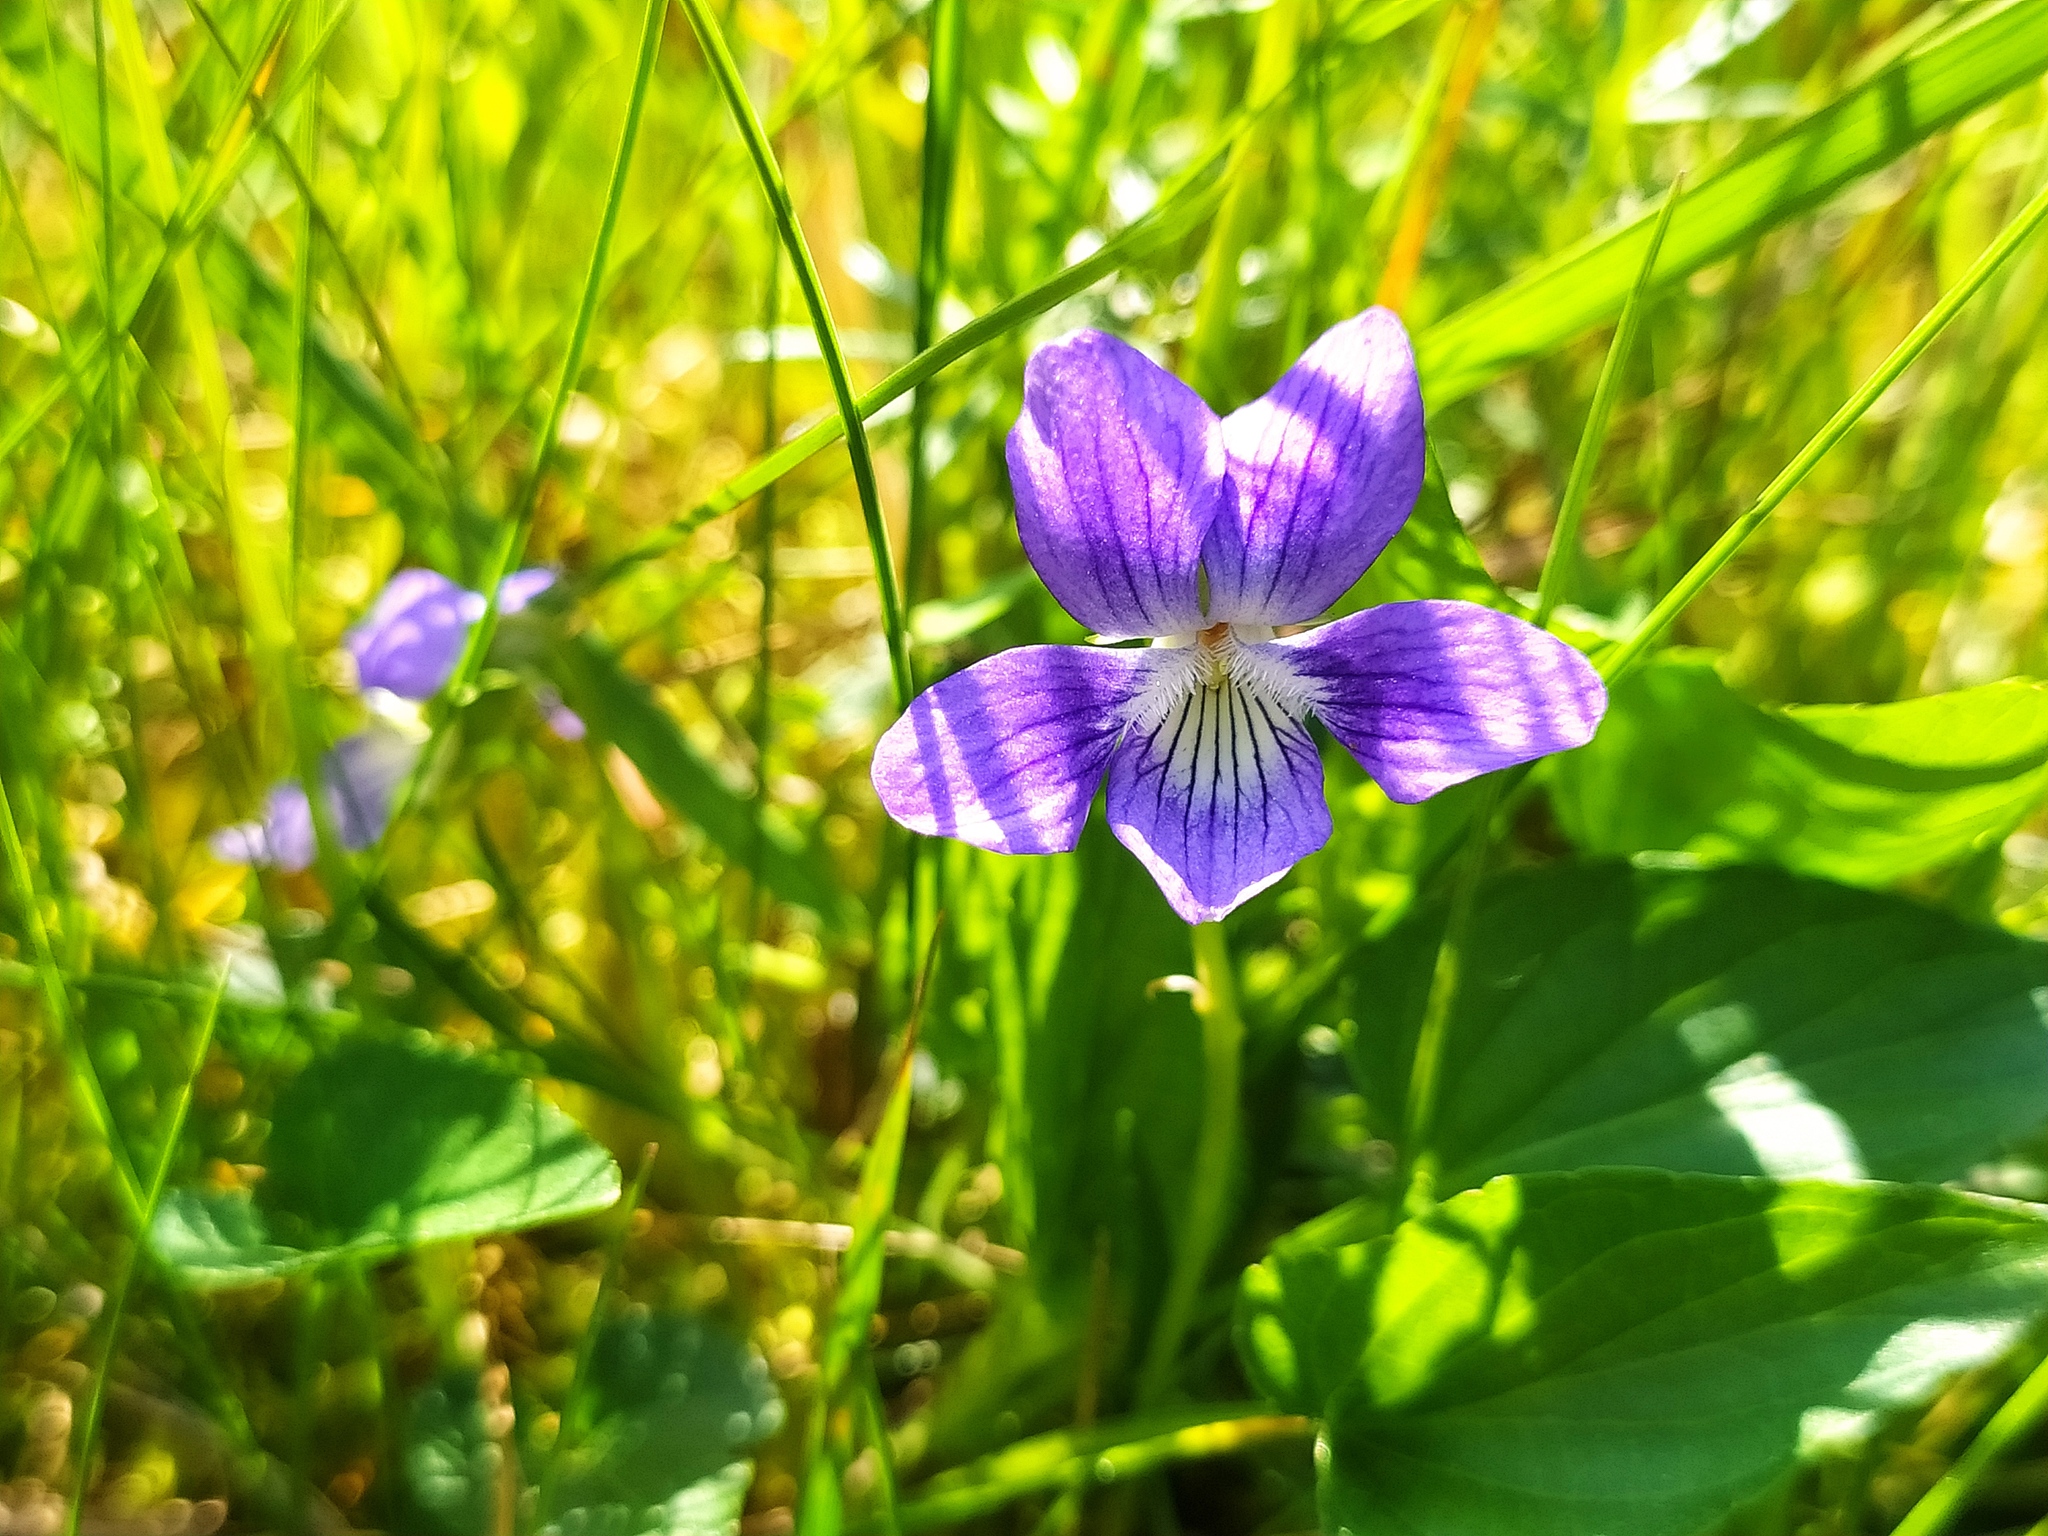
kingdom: Plantae
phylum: Tracheophyta
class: Magnoliopsida
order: Malpighiales
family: Violaceae
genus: Viola
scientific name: Viola canina
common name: Heath dog-violet
